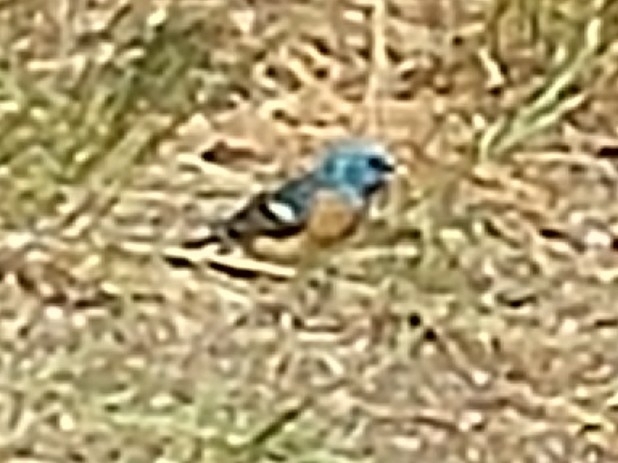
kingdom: Animalia
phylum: Chordata
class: Aves
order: Passeriformes
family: Cardinalidae
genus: Passerina
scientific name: Passerina amoena
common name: Lazuli bunting
